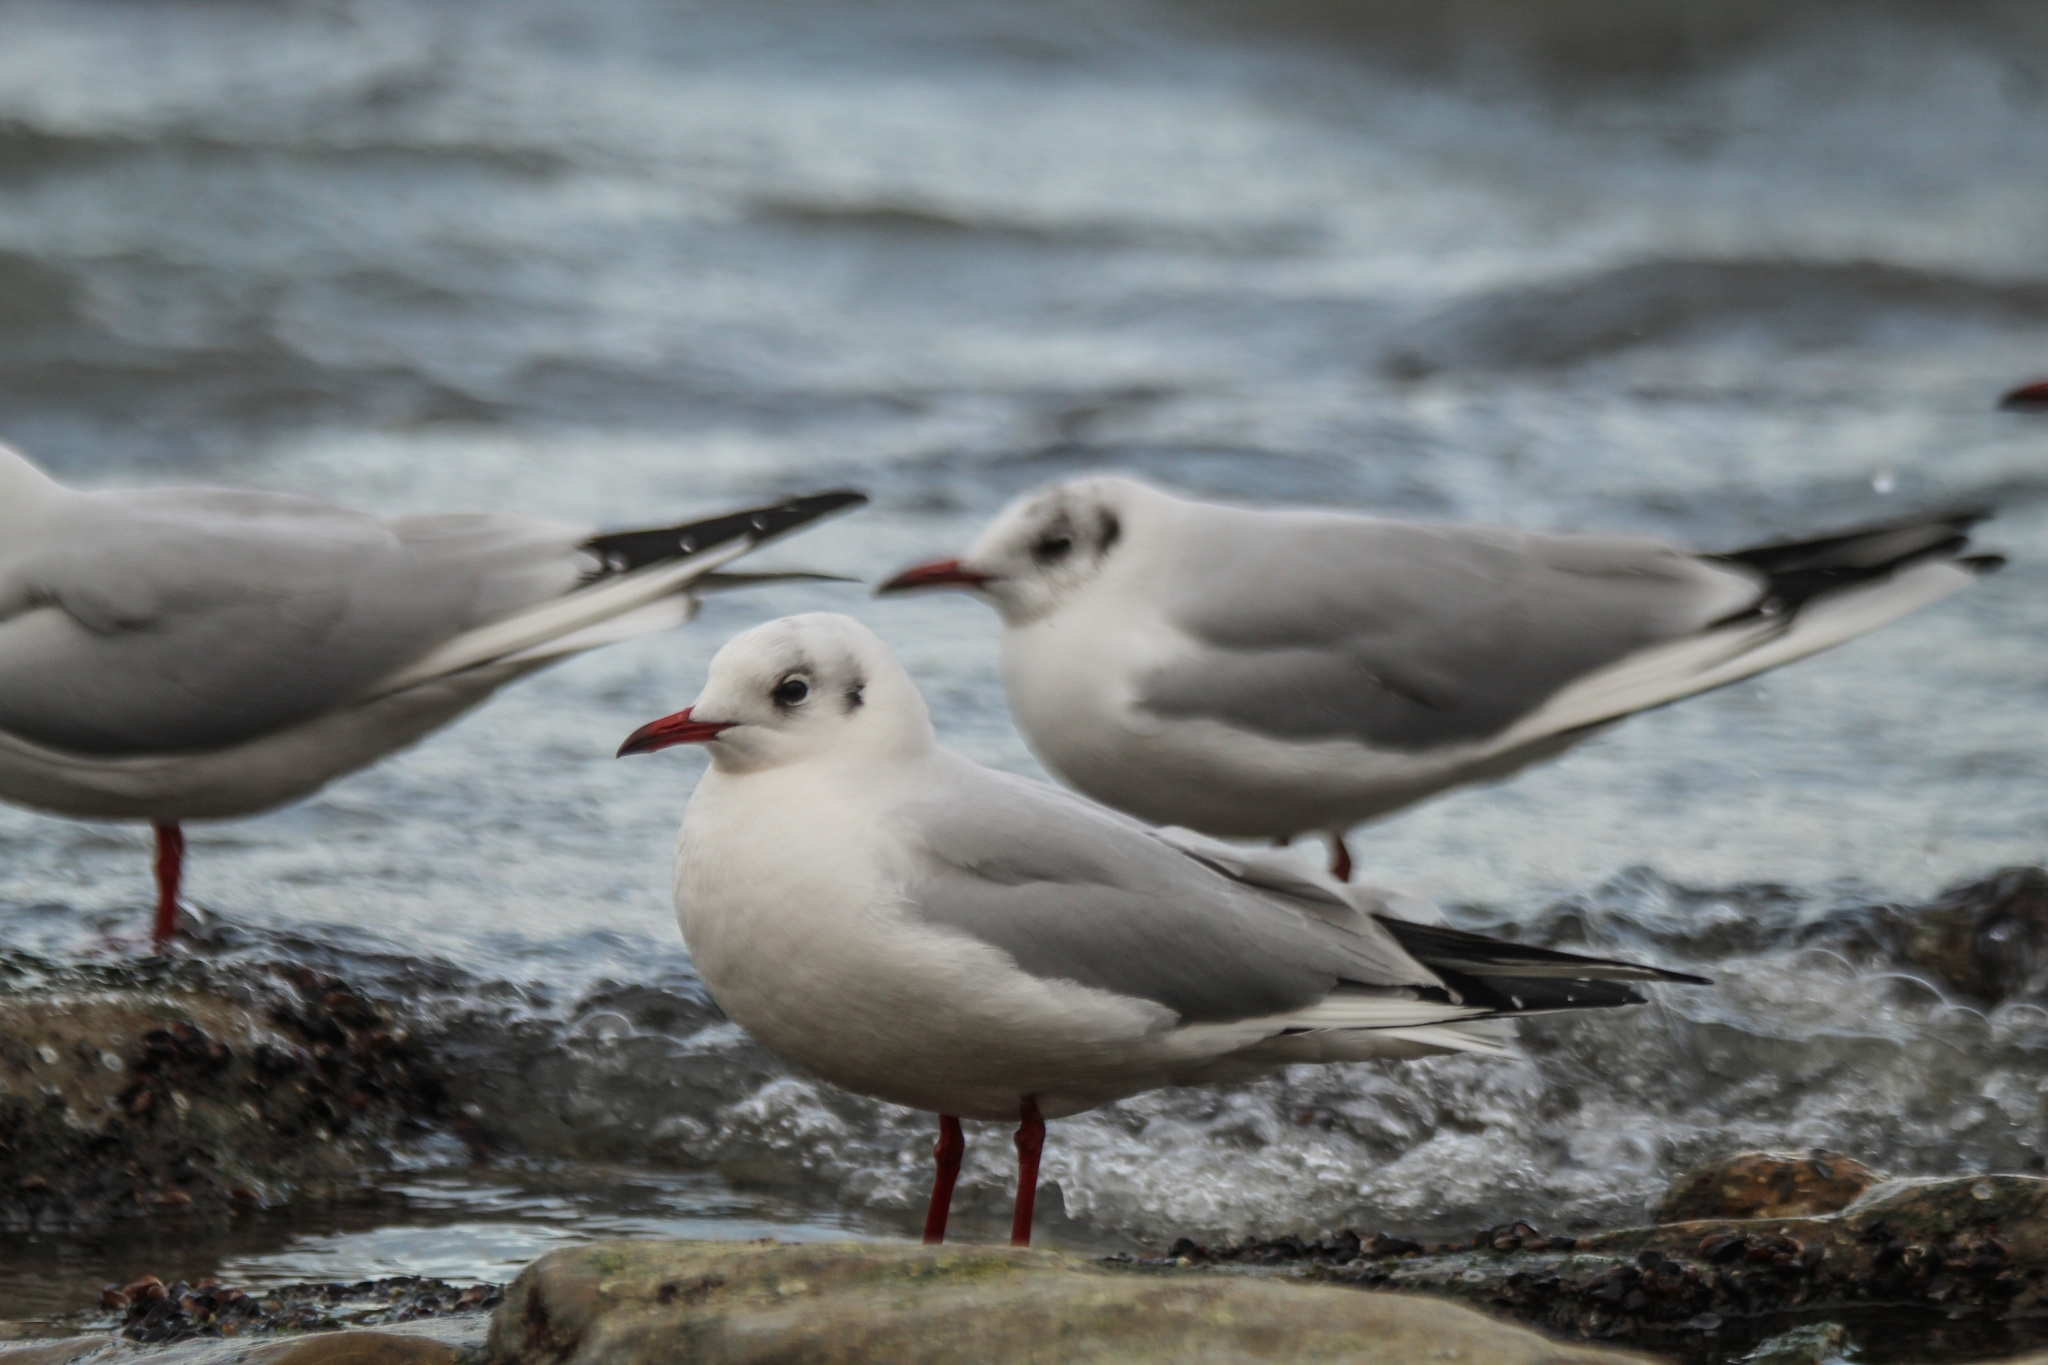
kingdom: Animalia
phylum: Chordata
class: Aves
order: Charadriiformes
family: Laridae
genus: Chroicocephalus
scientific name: Chroicocephalus ridibundus
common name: Black-headed gull
